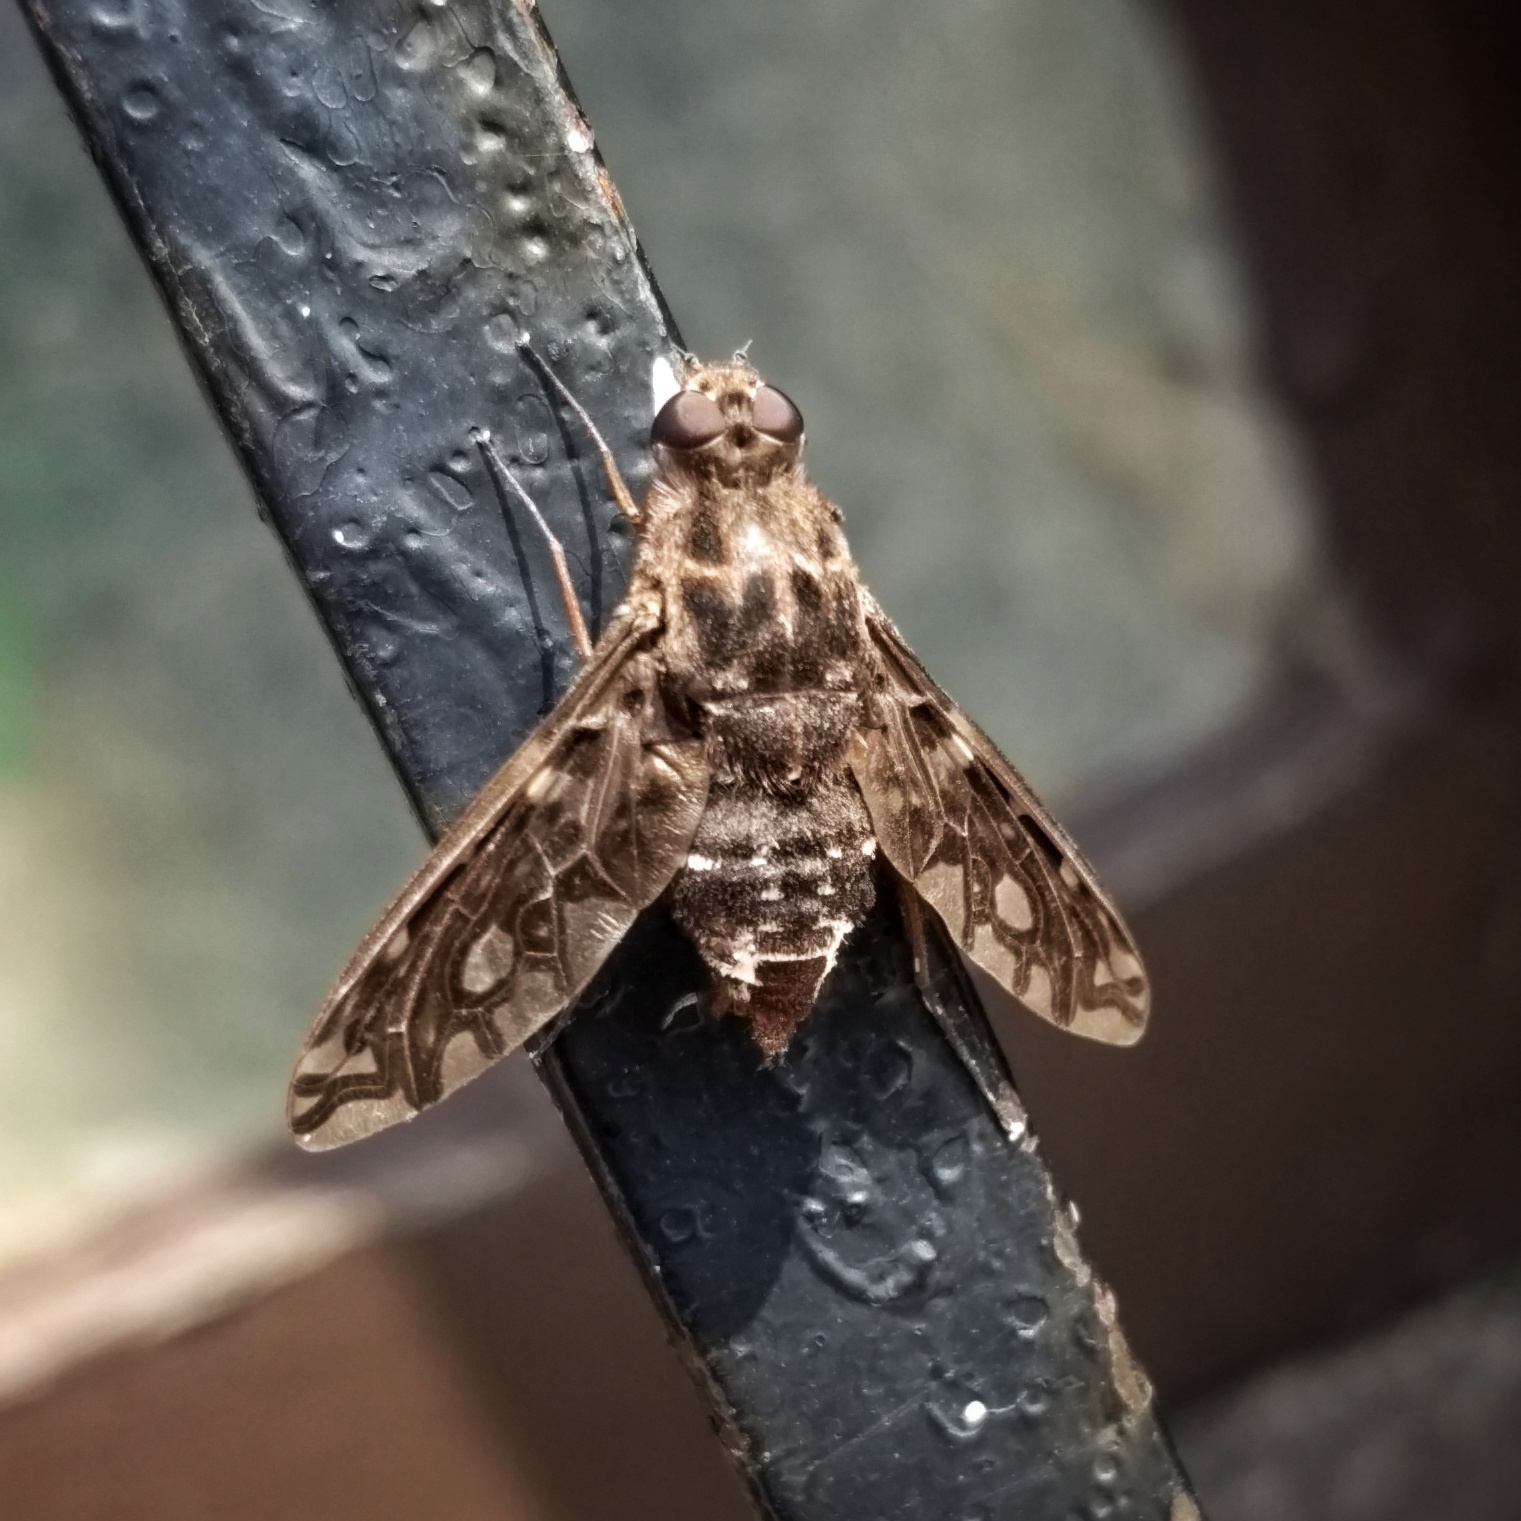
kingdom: Animalia
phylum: Arthropoda
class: Insecta
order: Diptera
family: Bombyliidae
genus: Xenox
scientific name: Xenox tigrinus
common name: Tiger bee fly
